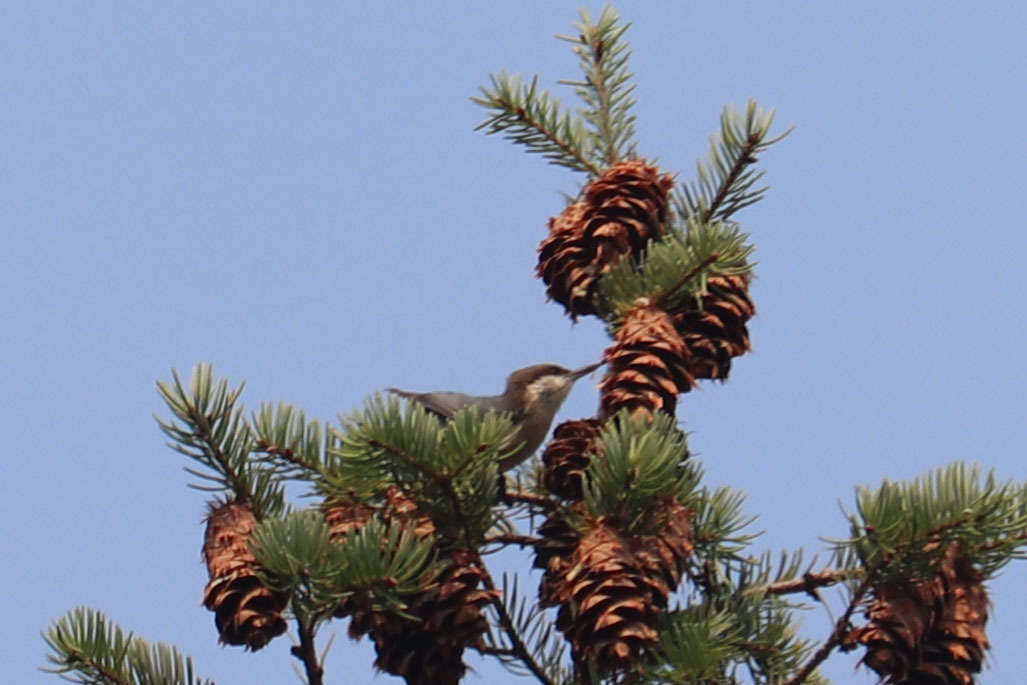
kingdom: Animalia
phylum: Chordata
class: Aves
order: Passeriformes
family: Sittidae
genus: Sitta
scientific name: Sitta pygmaea
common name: Pygmy nuthatch
